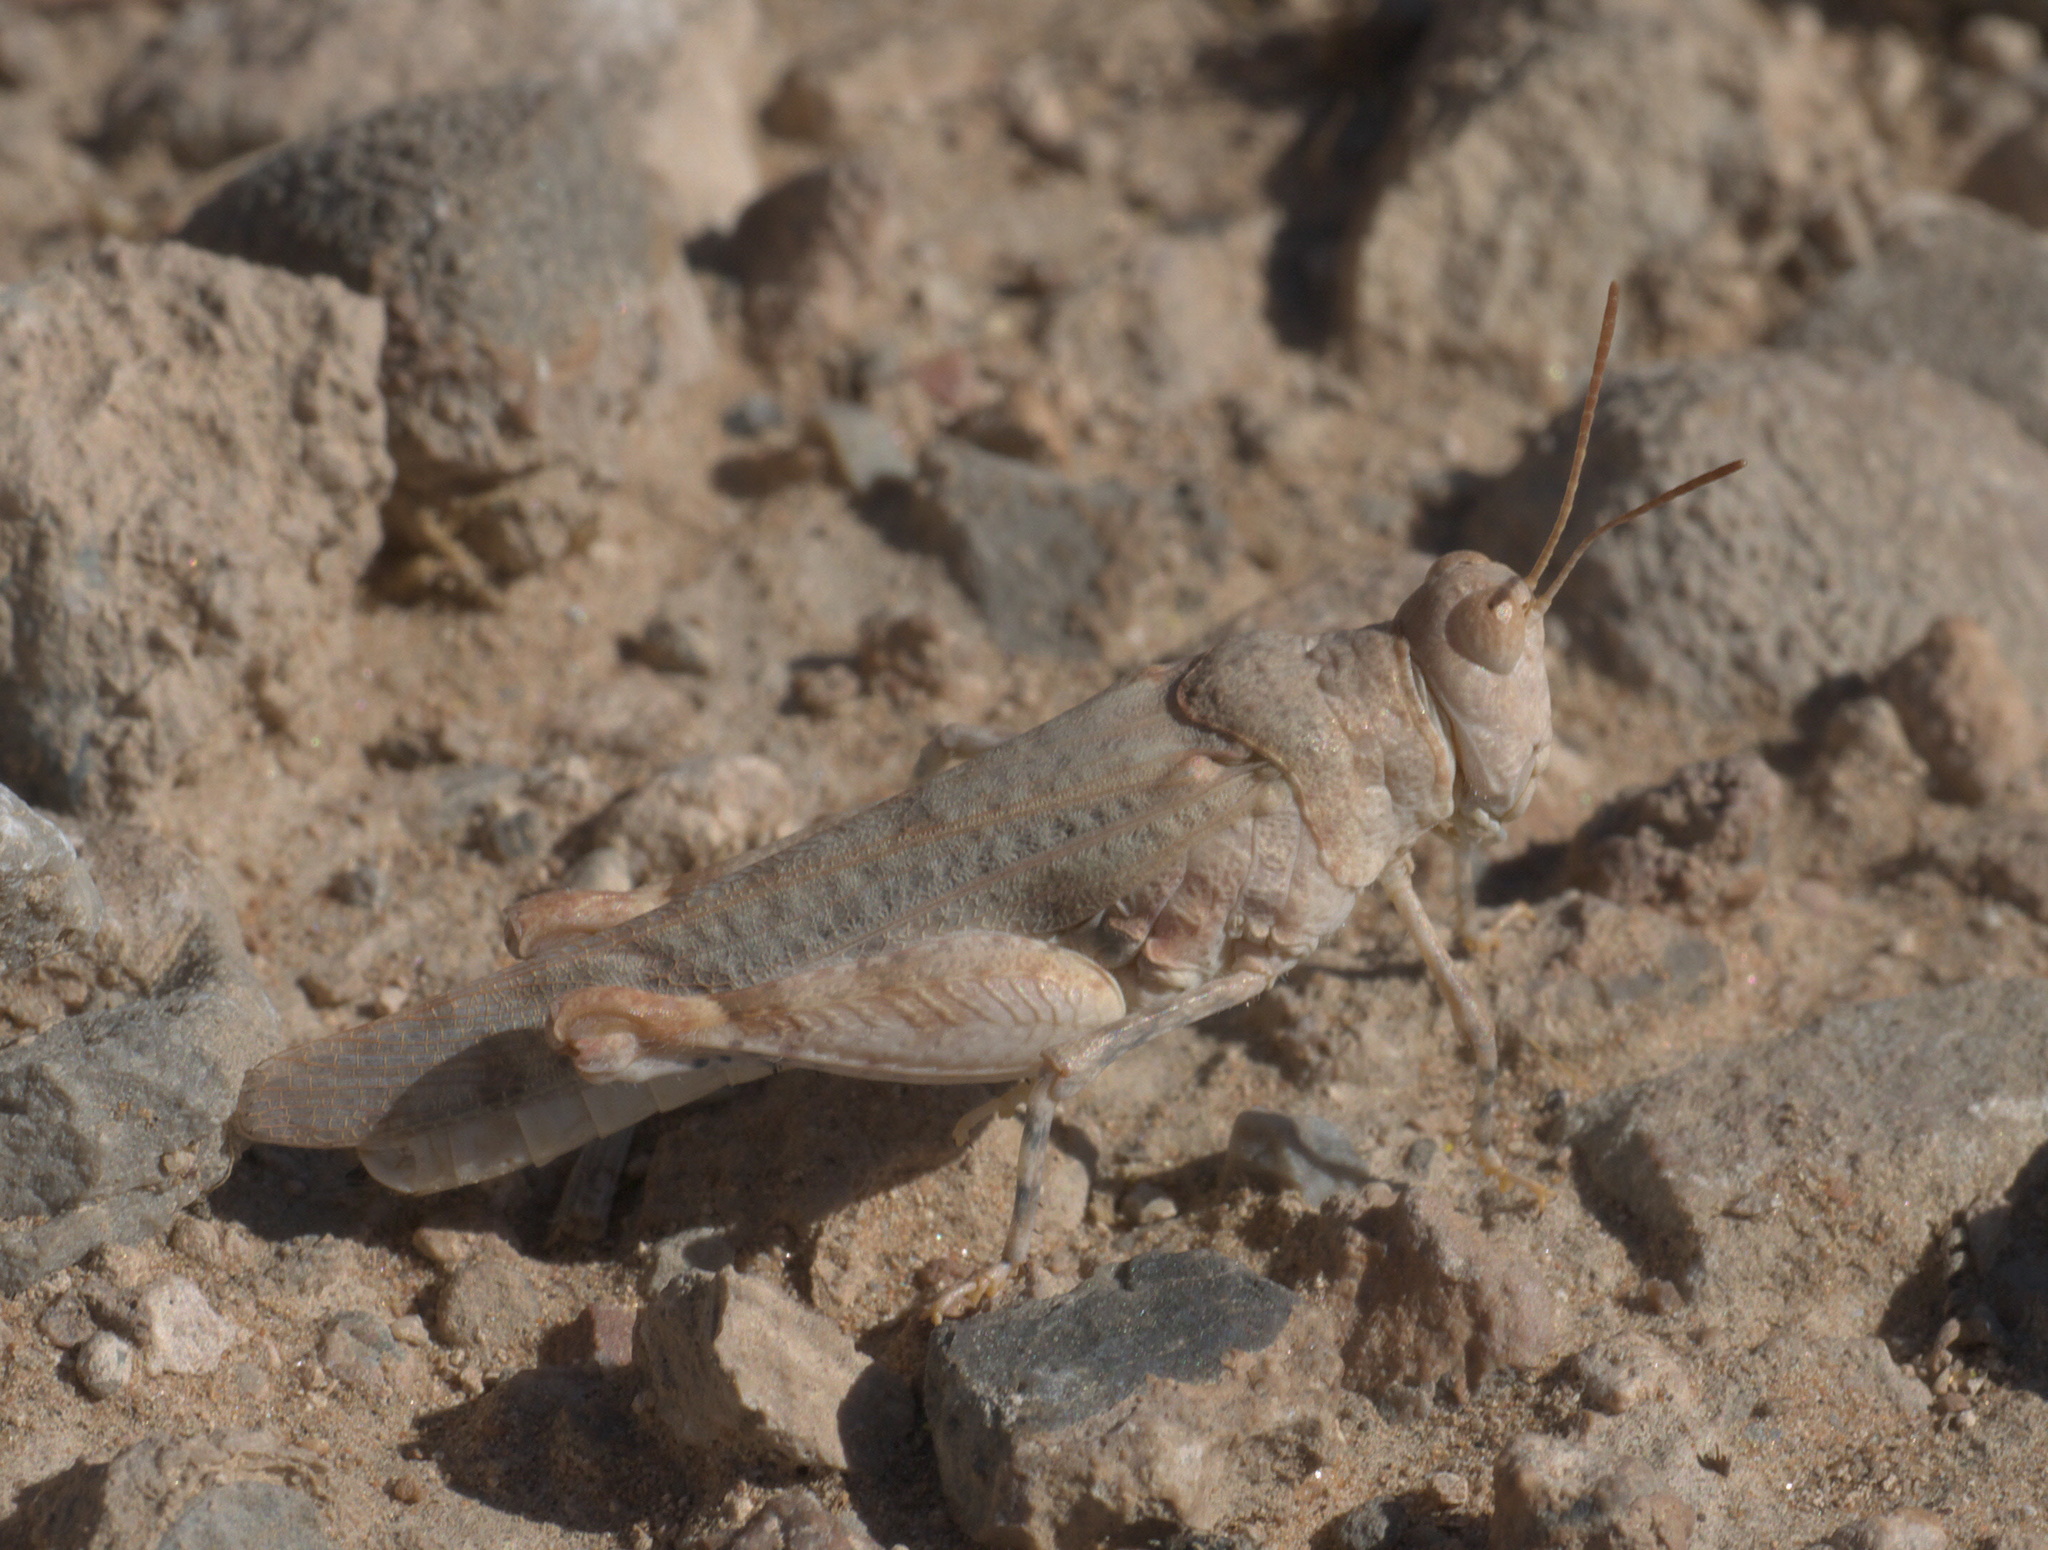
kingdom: Animalia
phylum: Arthropoda
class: Insecta
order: Orthoptera
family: Acrididae
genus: Cibolacris
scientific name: Cibolacris parviceps
